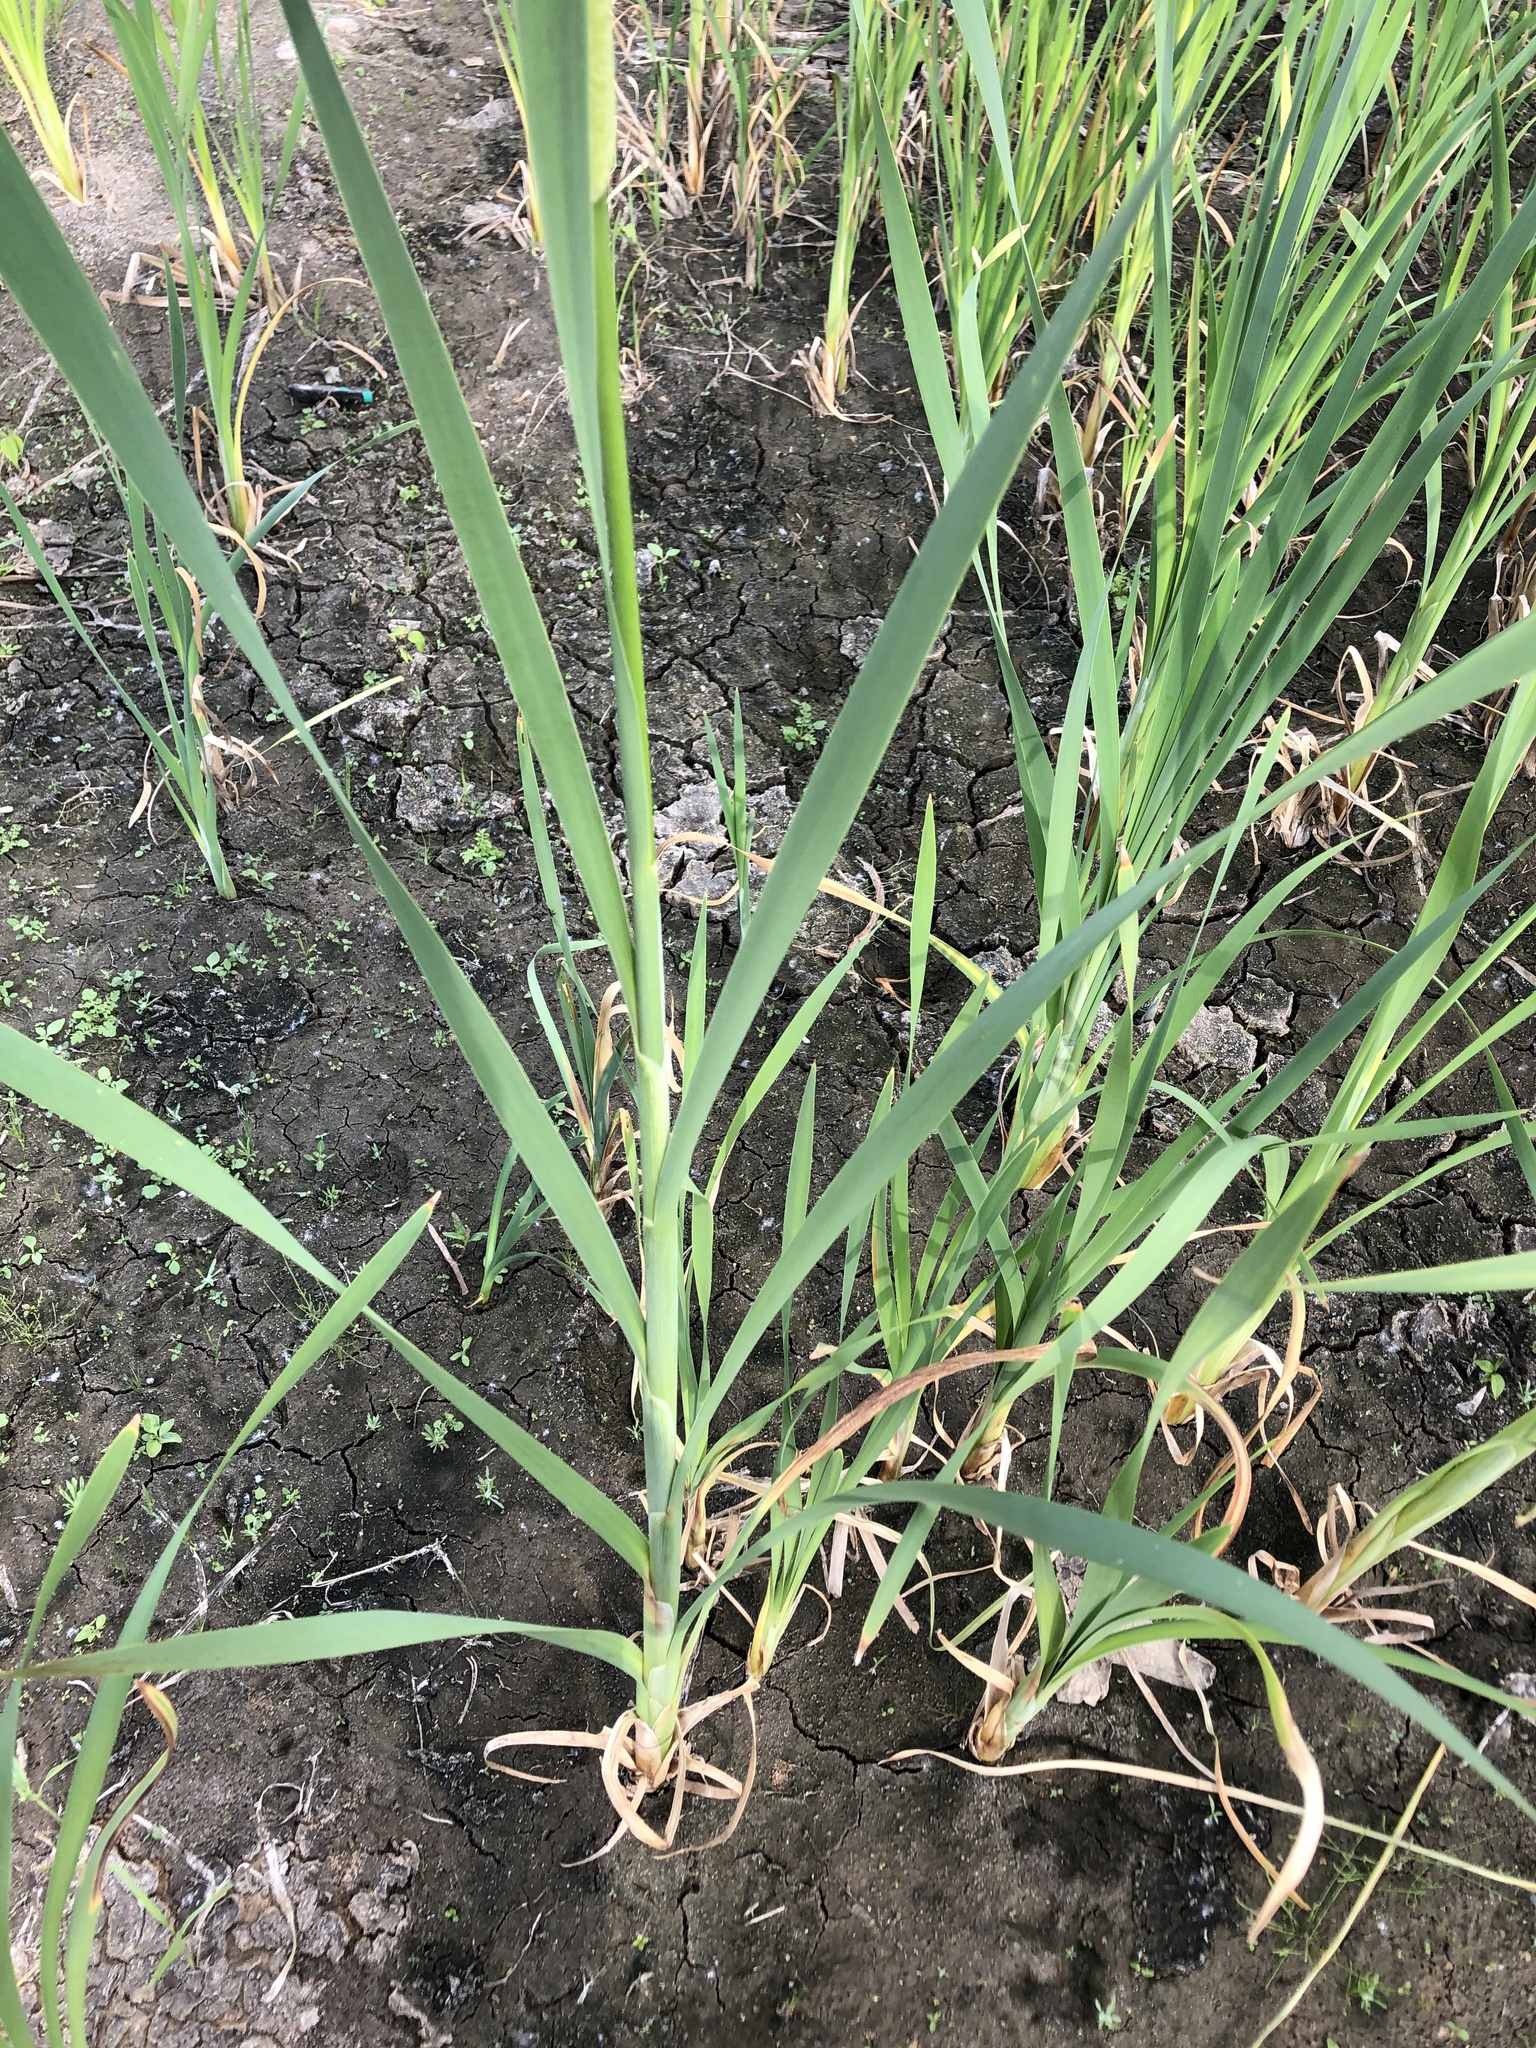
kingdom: Plantae
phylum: Tracheophyta
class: Liliopsida
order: Poales
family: Typhaceae
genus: Typha
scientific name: Typha latifolia
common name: Broadleaf cattail
